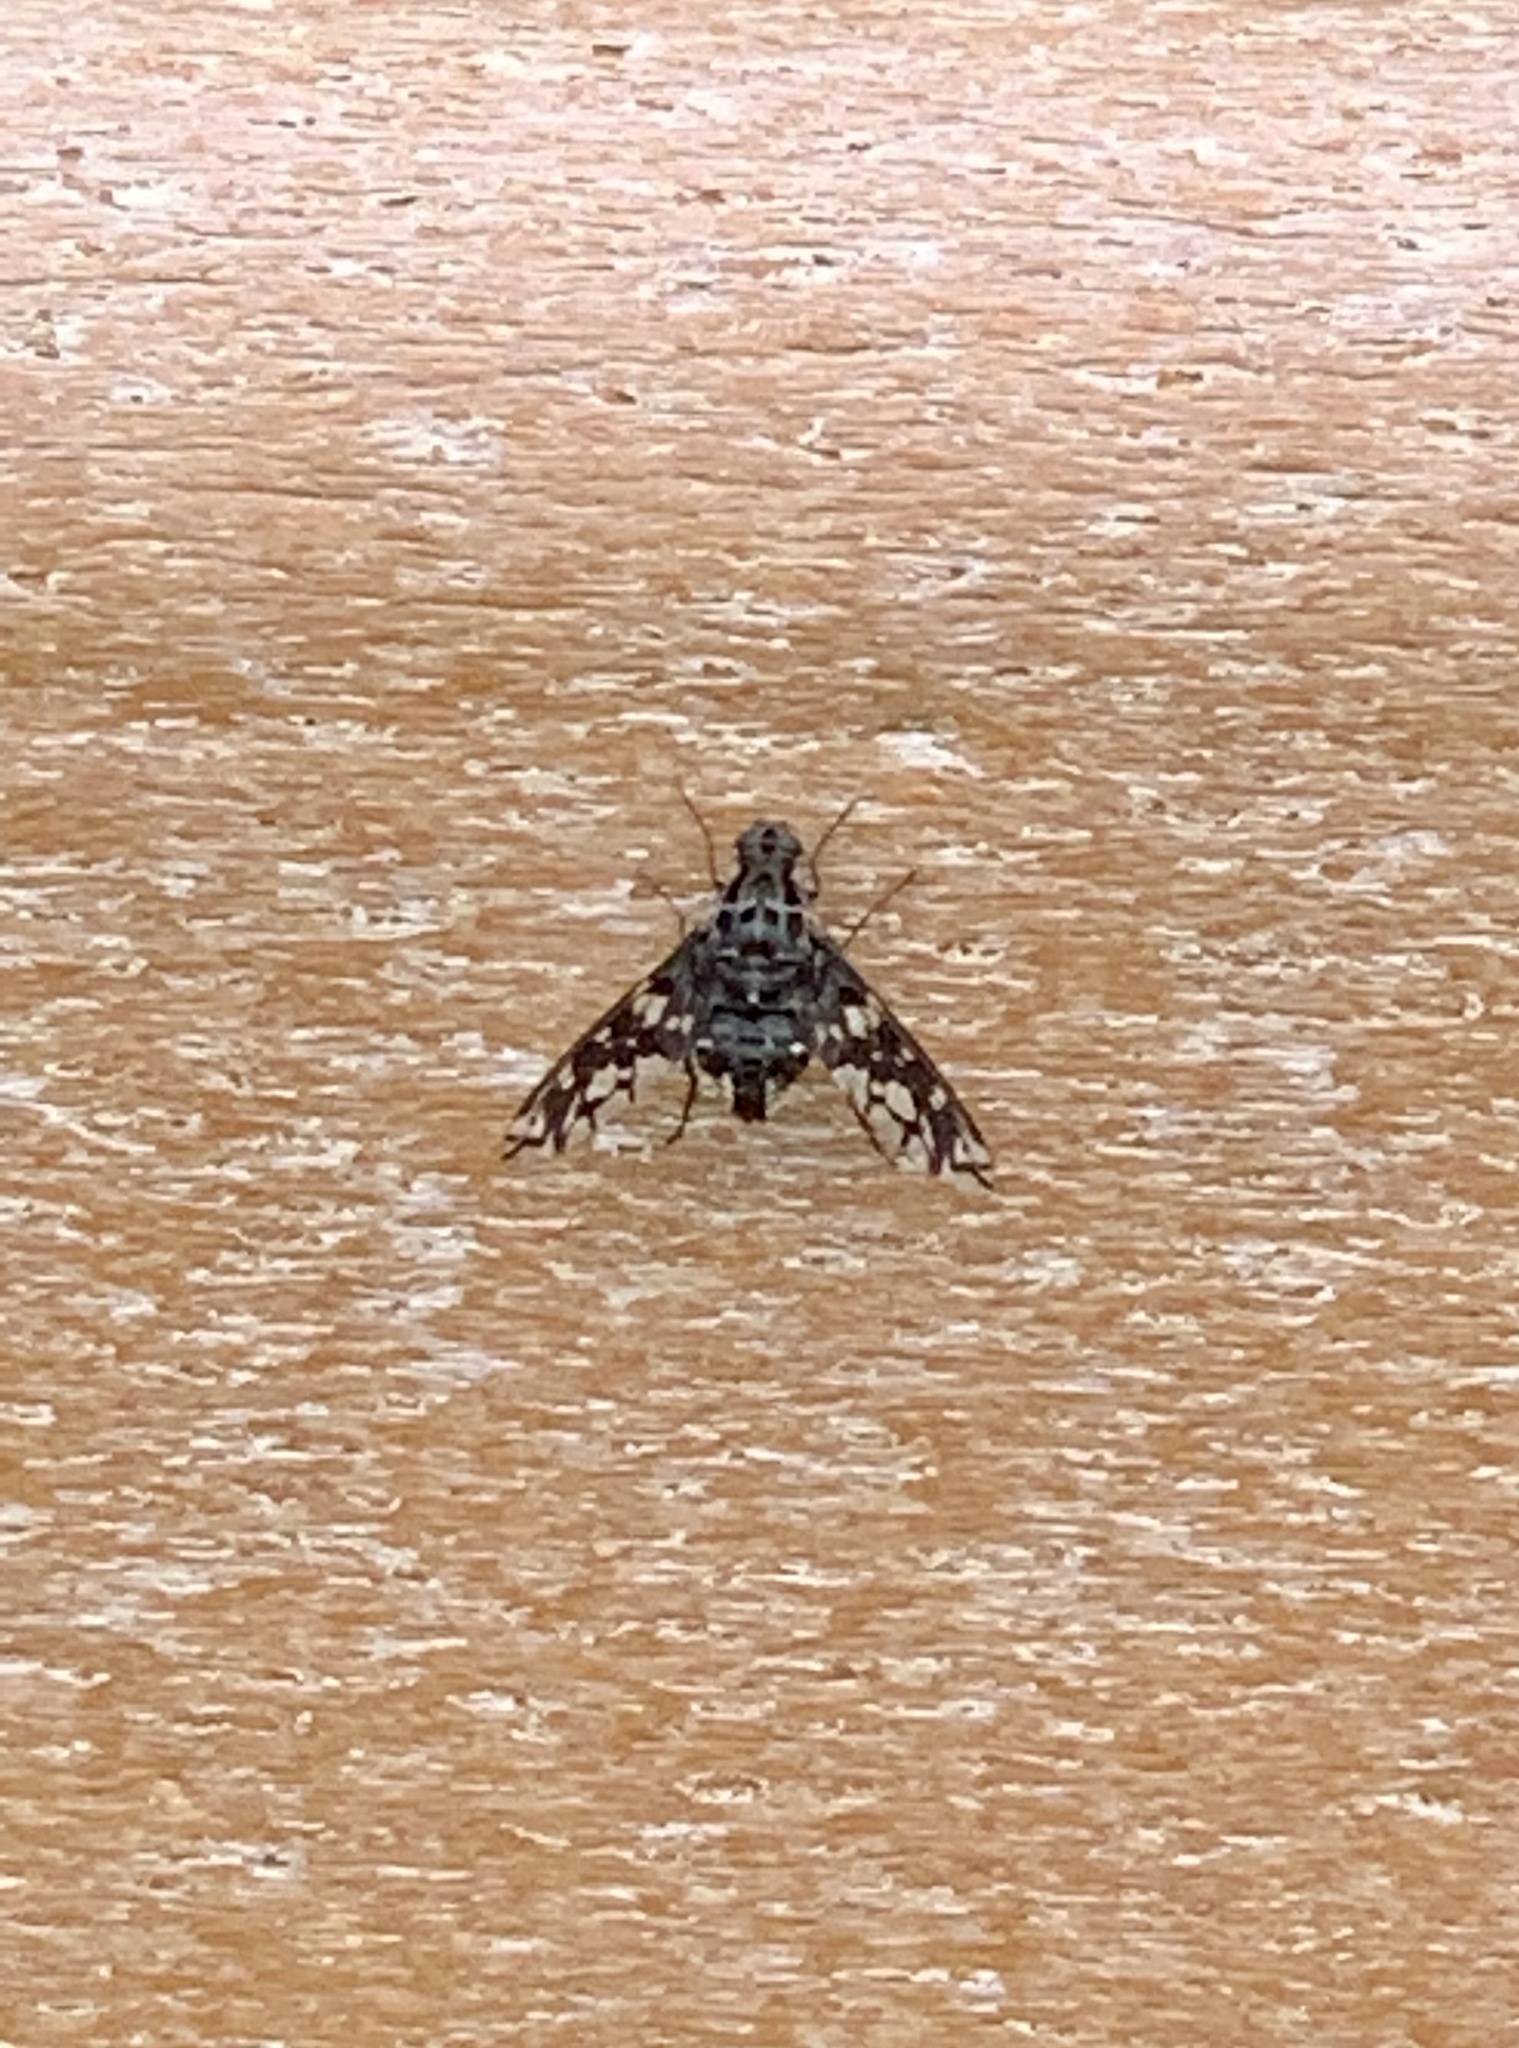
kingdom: Animalia
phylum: Arthropoda
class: Insecta
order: Diptera
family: Bombyliidae
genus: Xenox
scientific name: Xenox tigrinus
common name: Tiger bee fly
